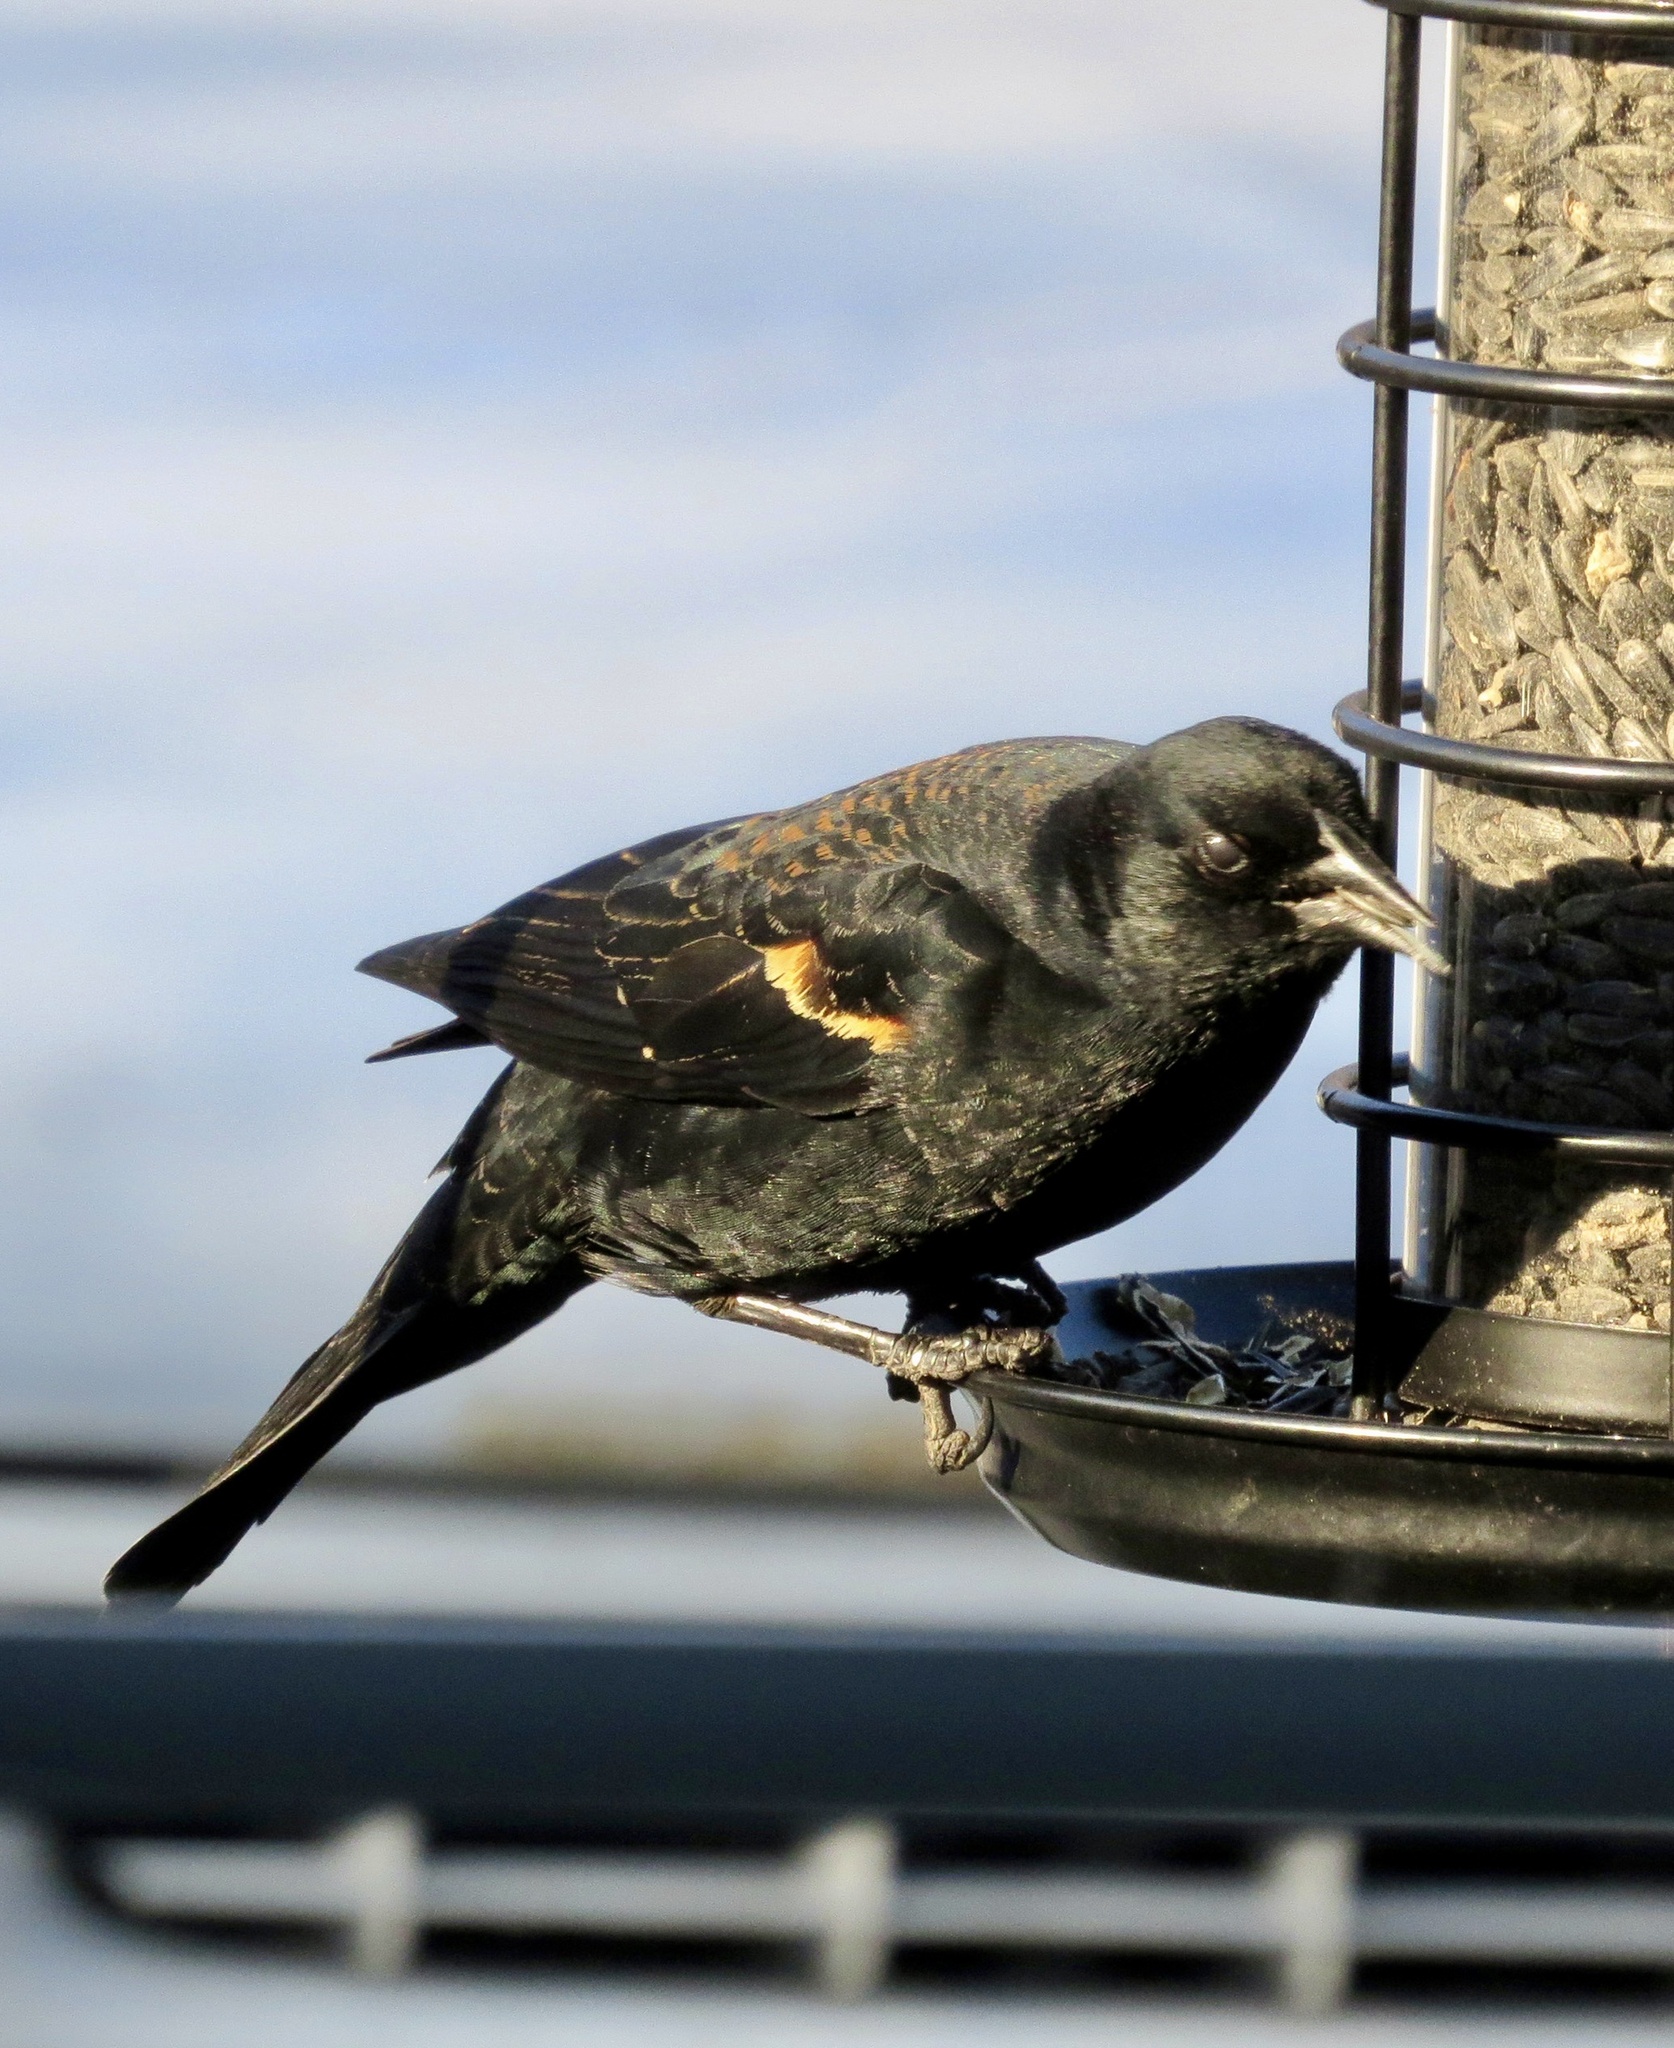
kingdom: Animalia
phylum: Chordata
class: Aves
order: Passeriformes
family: Icteridae
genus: Agelaius
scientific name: Agelaius phoeniceus
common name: Red-winged blackbird
